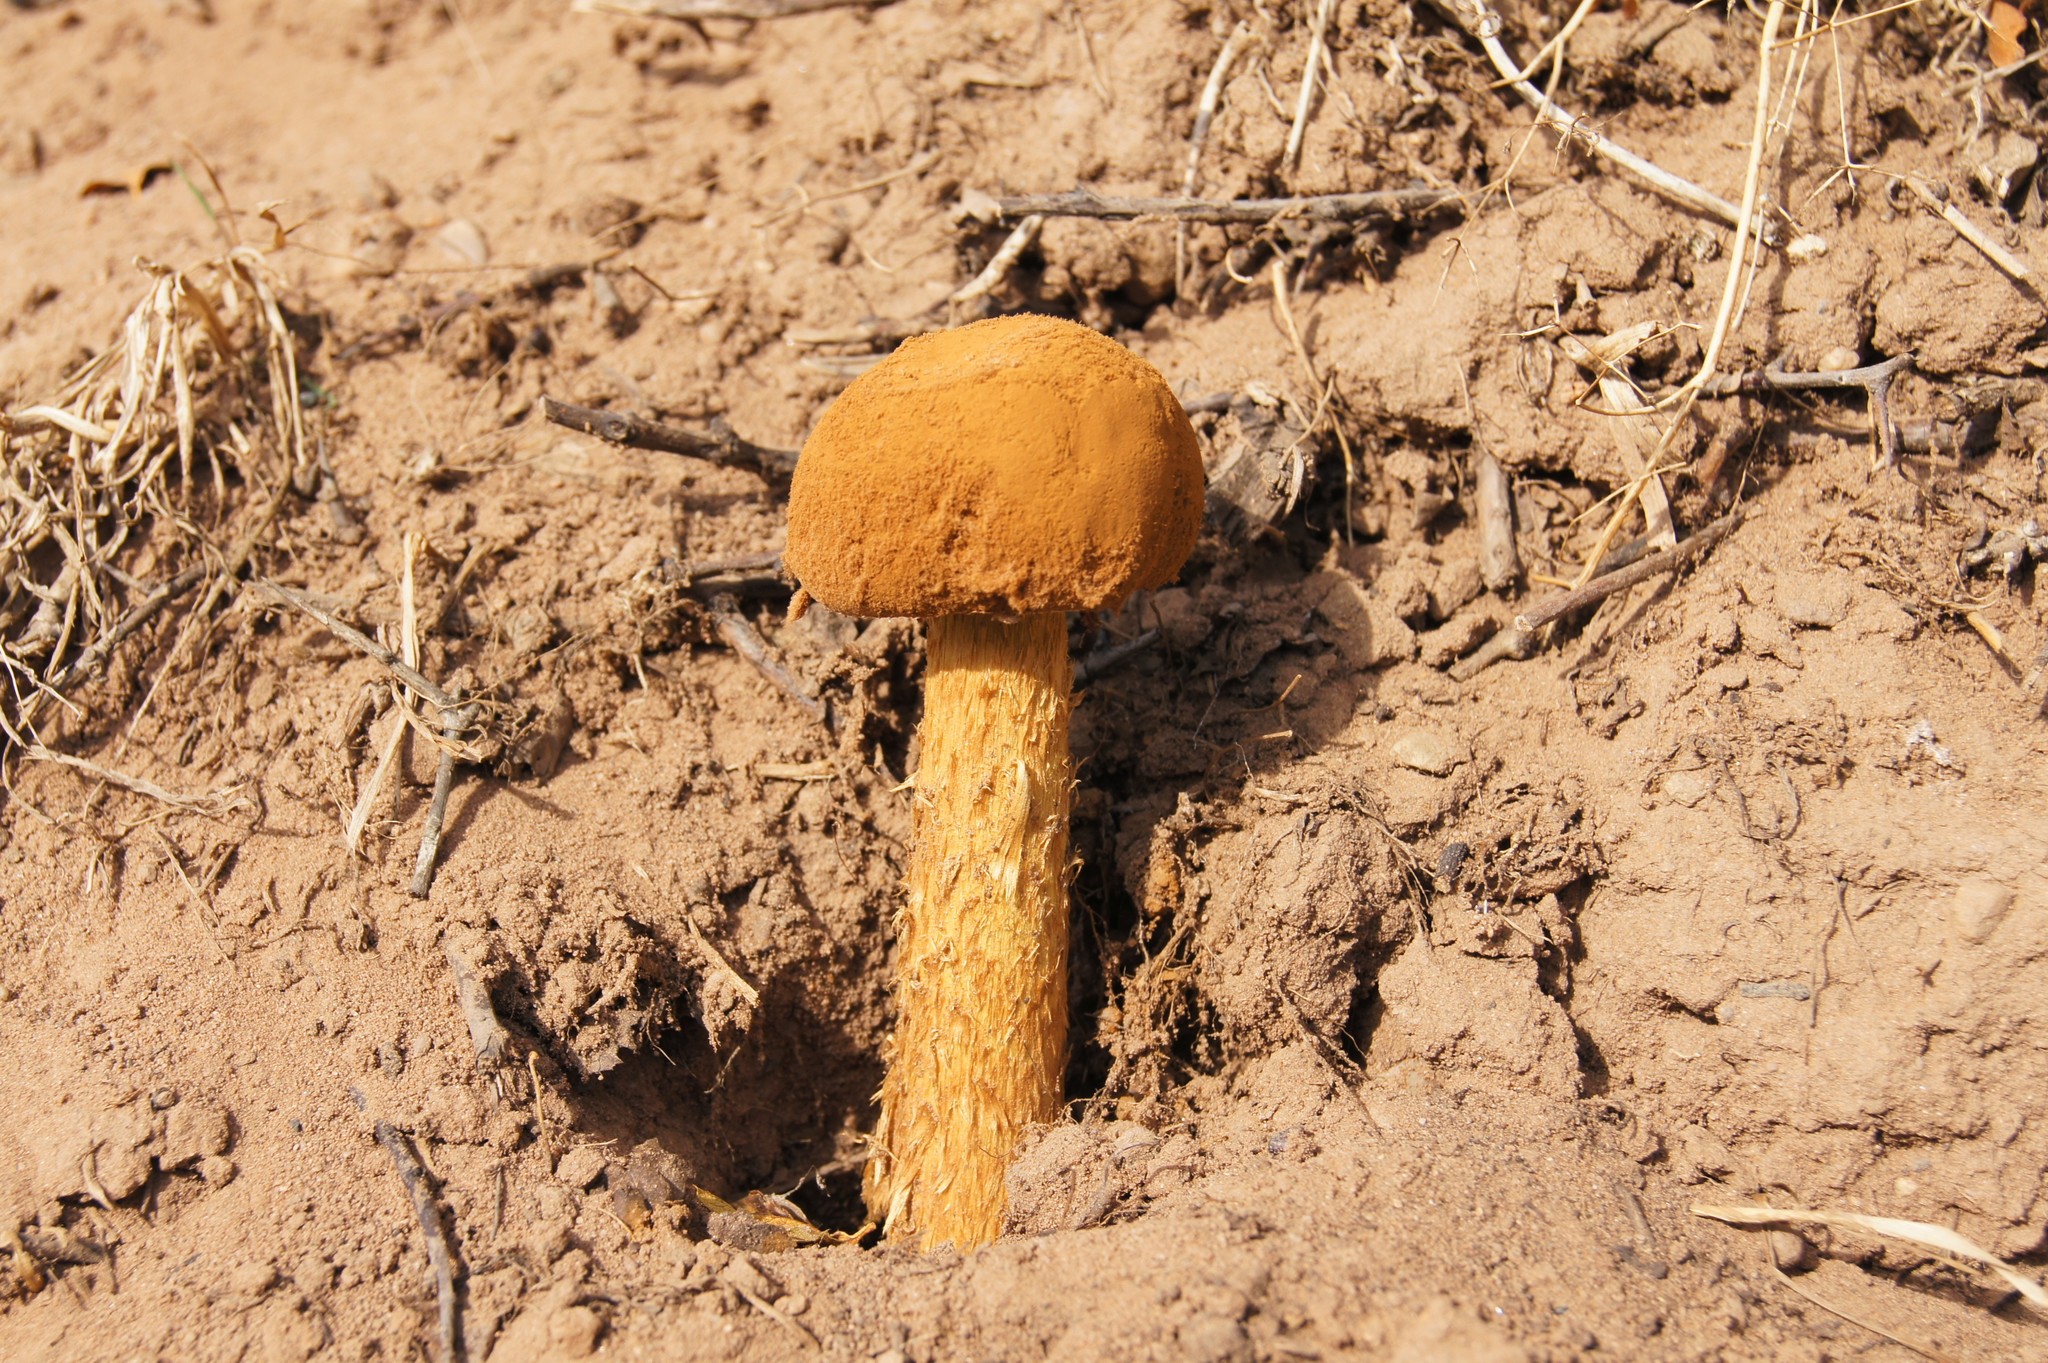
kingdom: Fungi
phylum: Basidiomycota
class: Agaricomycetes
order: Agaricales
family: Agaricaceae
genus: Battarrea
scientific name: Battarrea phalloides
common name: Sandy stiltball
